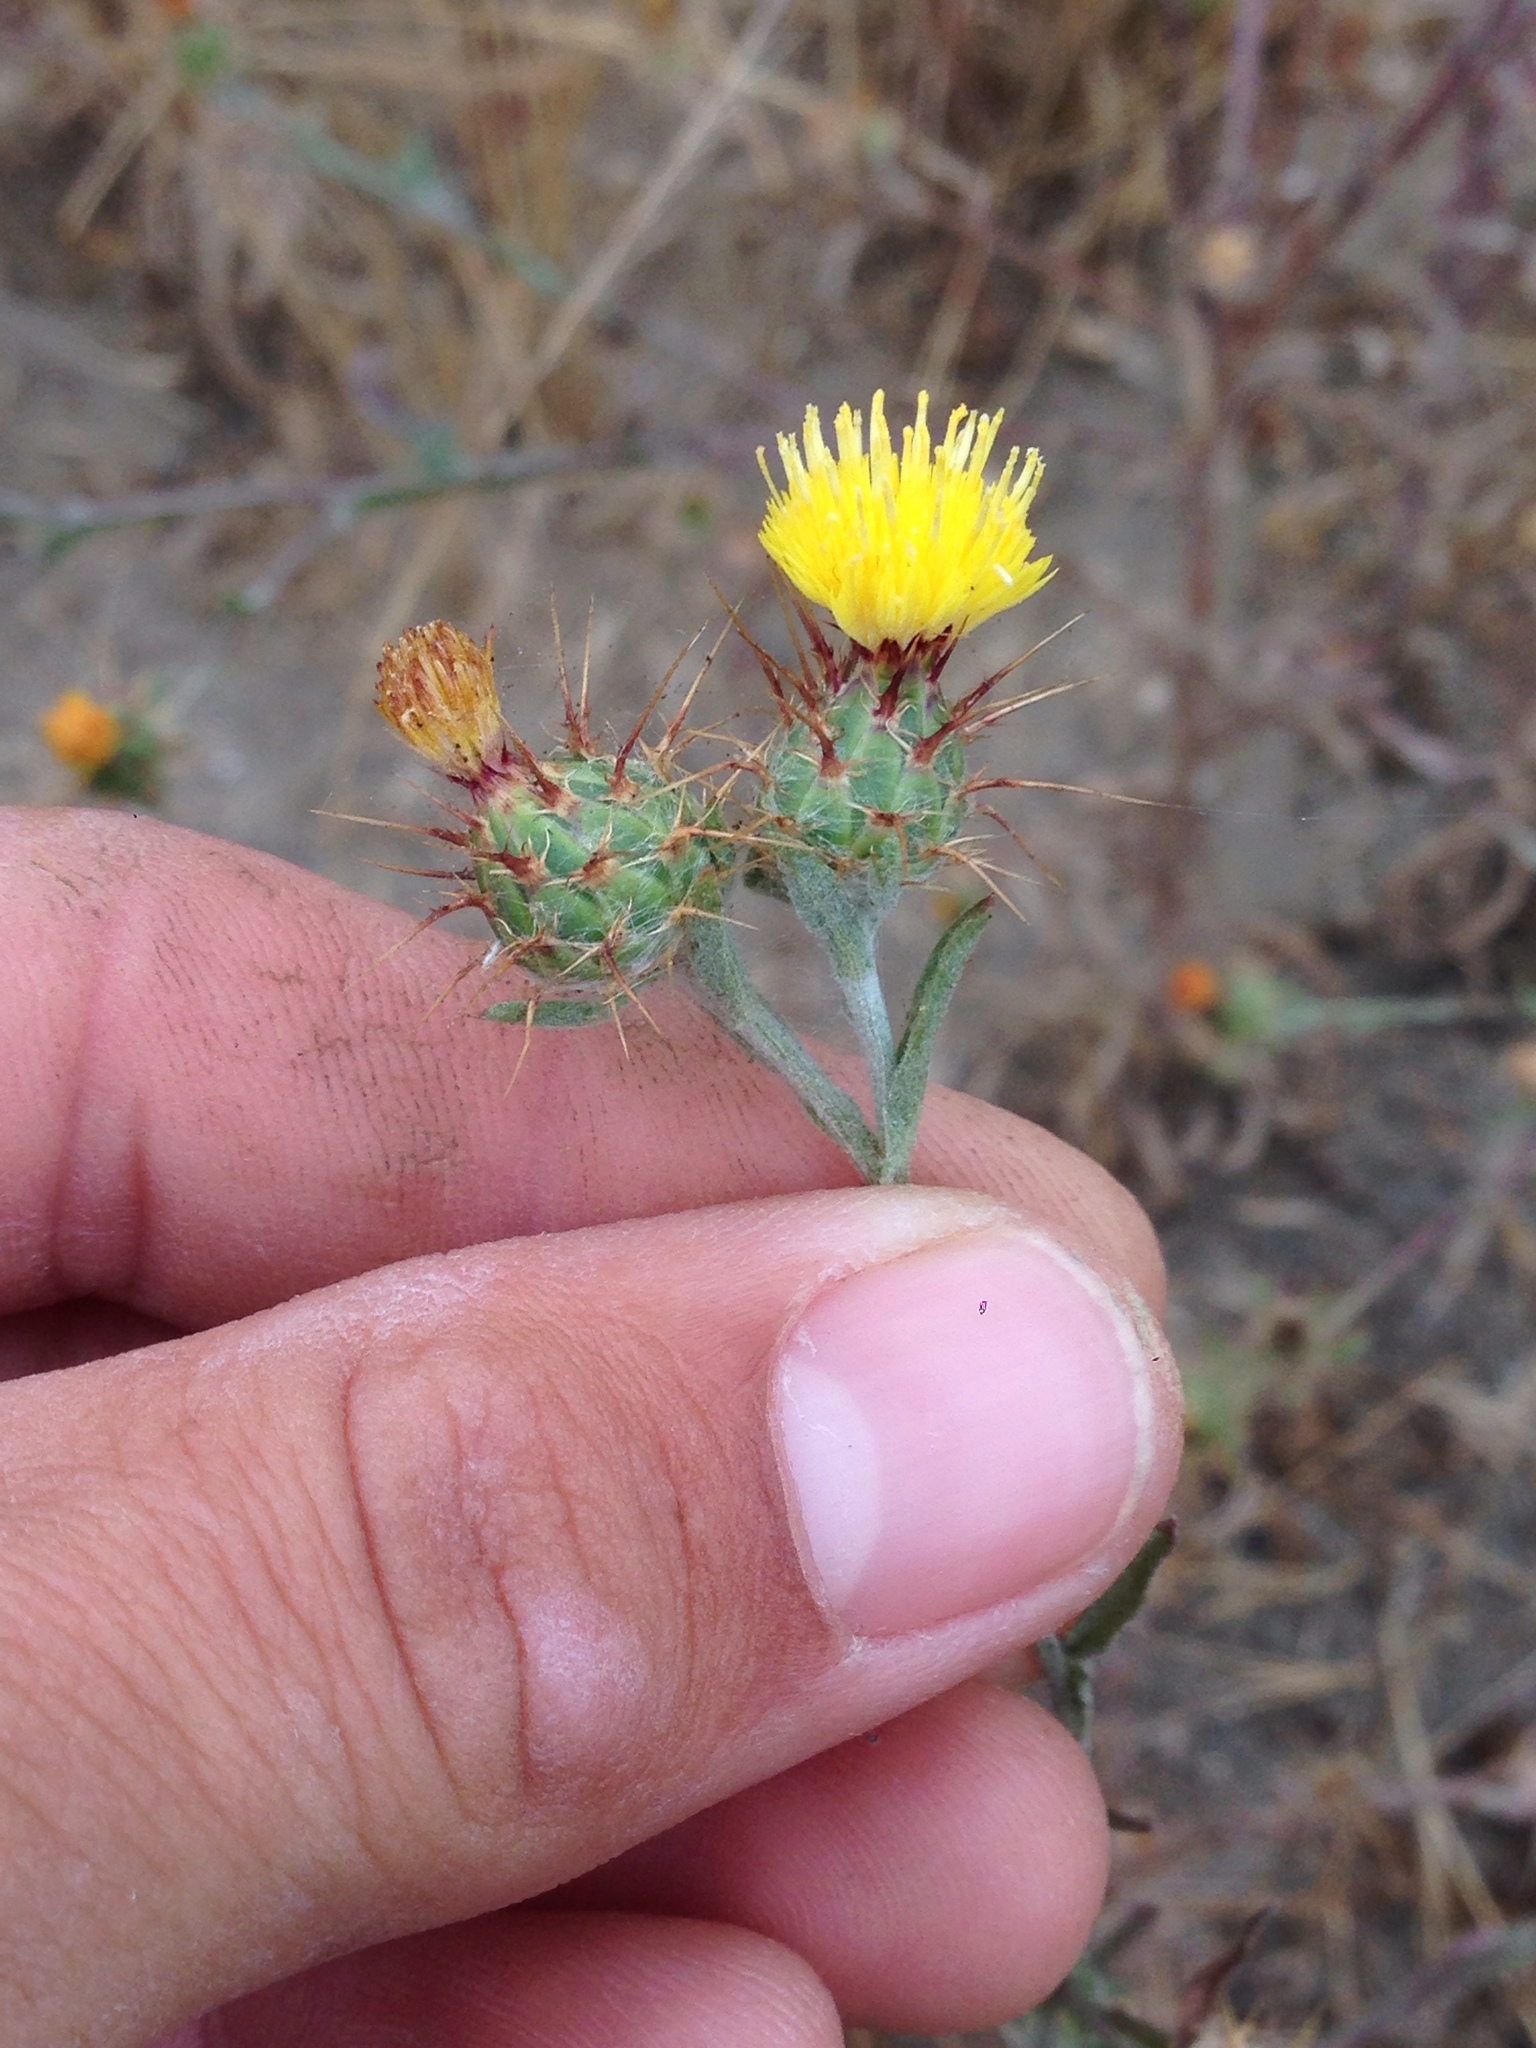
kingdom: Plantae
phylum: Tracheophyta
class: Magnoliopsida
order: Asterales
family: Asteraceae
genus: Centaurea
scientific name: Centaurea melitensis
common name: Maltese star-thistle
